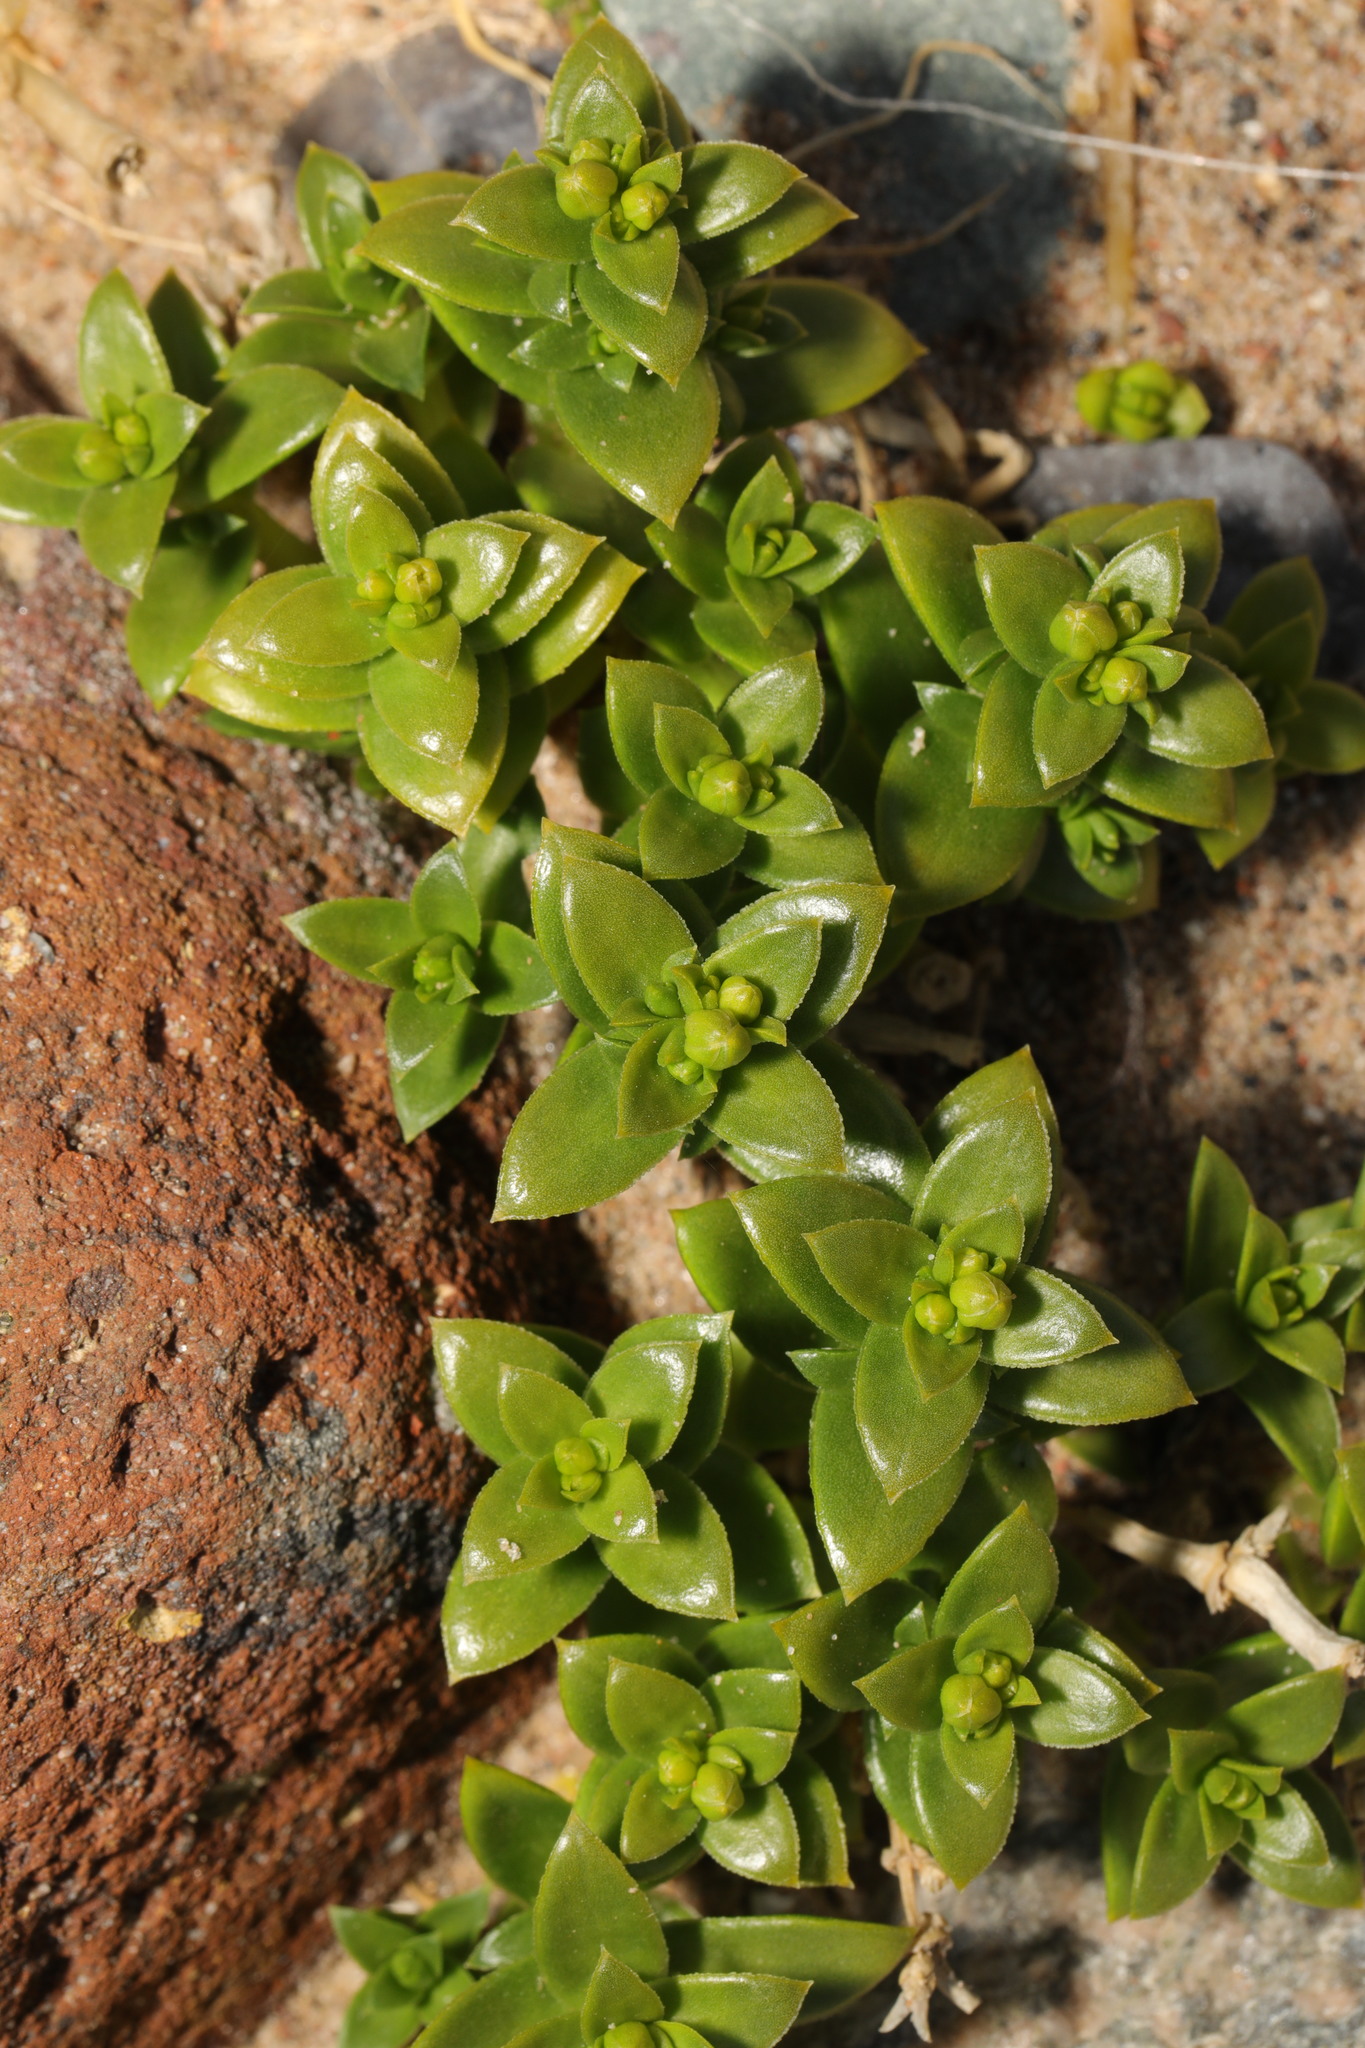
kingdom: Plantae
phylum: Tracheophyta
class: Magnoliopsida
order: Caryophyllales
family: Caryophyllaceae
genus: Honckenya
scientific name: Honckenya peploides
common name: Sea sandwort
